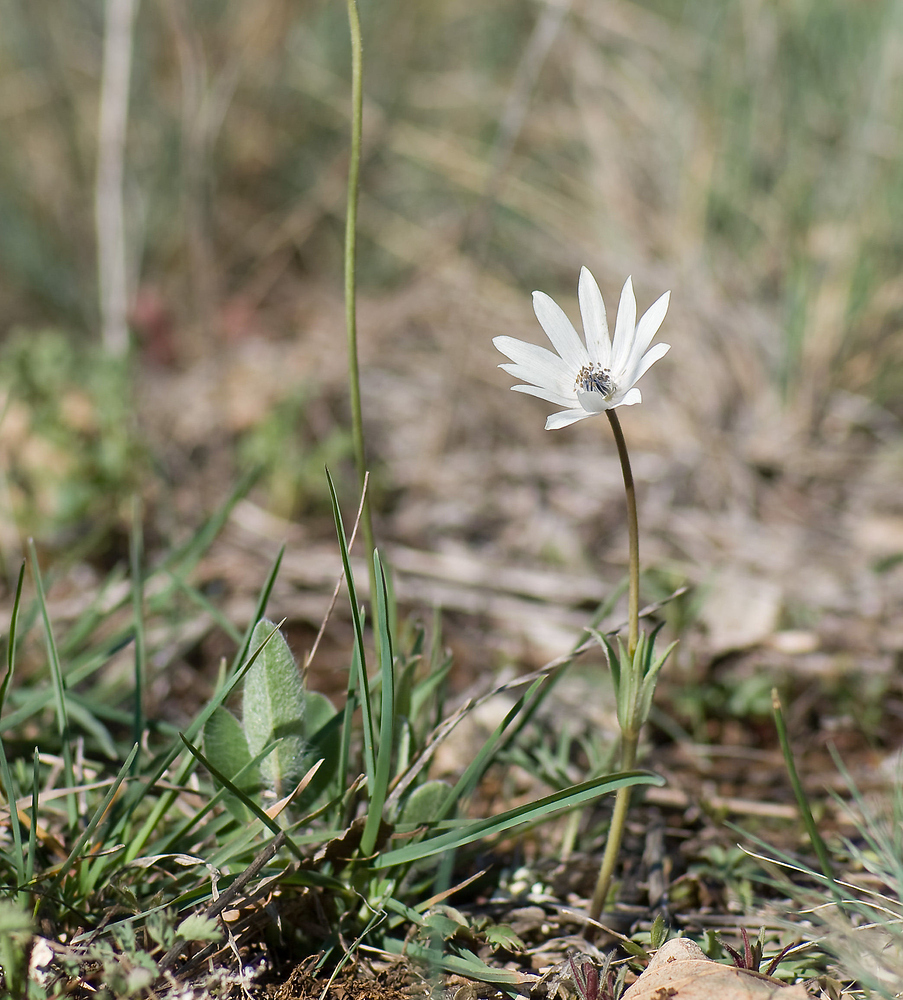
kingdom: Plantae
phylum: Tracheophyta
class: Magnoliopsida
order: Ranunculales
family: Ranunculaceae
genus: Anemone
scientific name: Anemone hortensis
